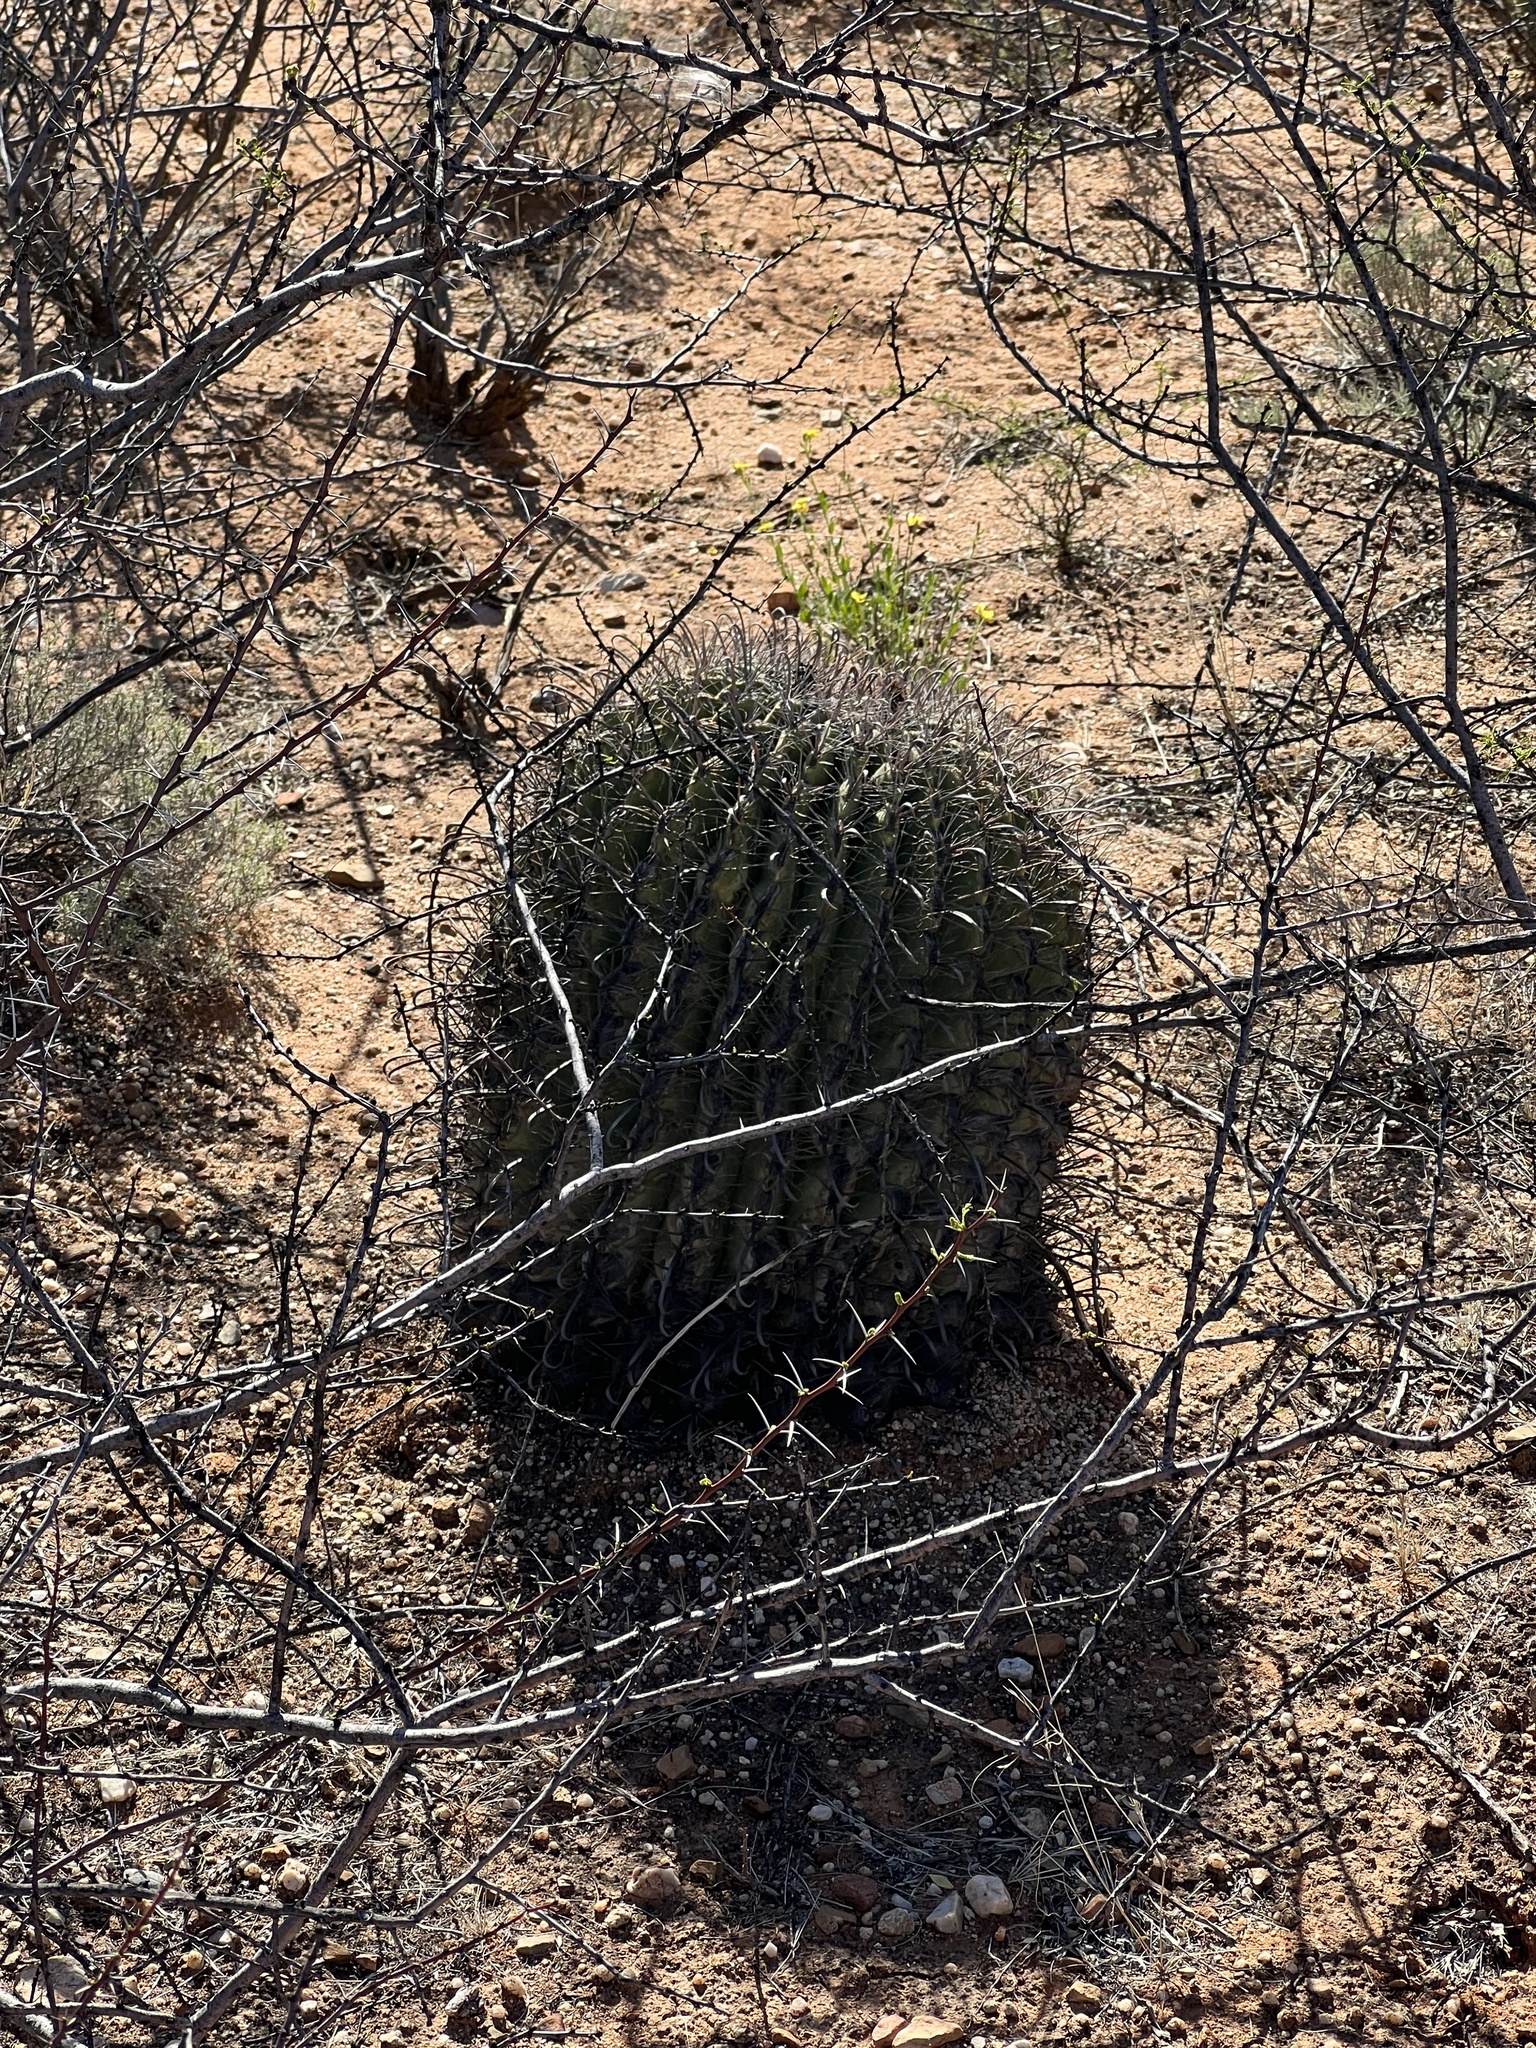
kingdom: Plantae
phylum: Tracheophyta
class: Magnoliopsida
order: Caryophyllales
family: Cactaceae
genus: Ferocactus
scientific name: Ferocactus wislizeni
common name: Candy barrel cactus
